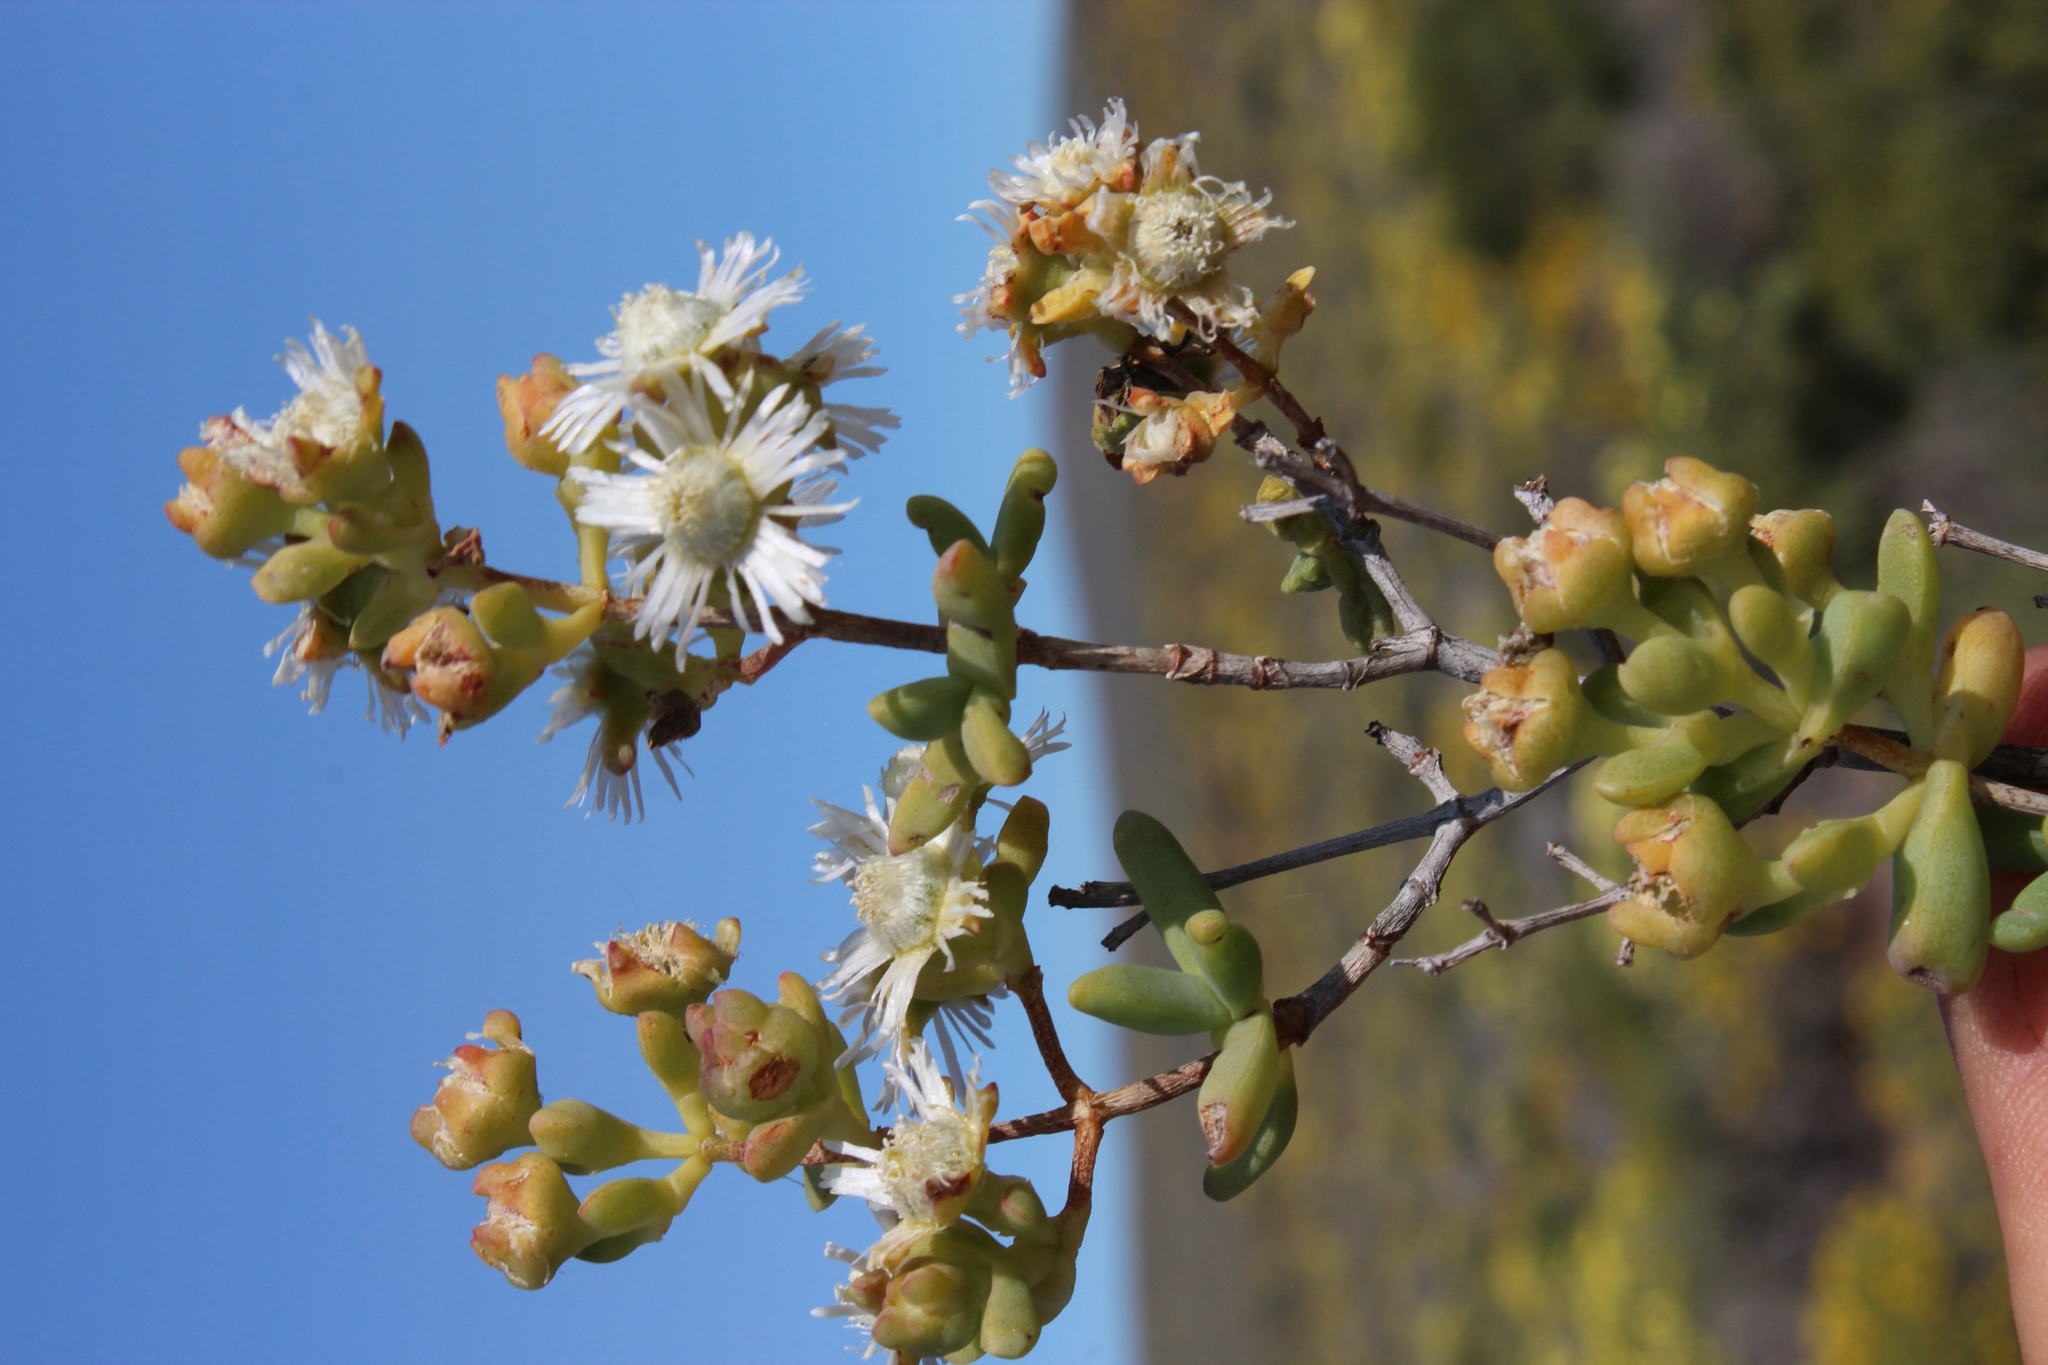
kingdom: Plantae
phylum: Tracheophyta
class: Magnoliopsida
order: Caryophyllales
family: Aizoaceae
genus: Stoeberia
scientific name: Stoeberia utilis
